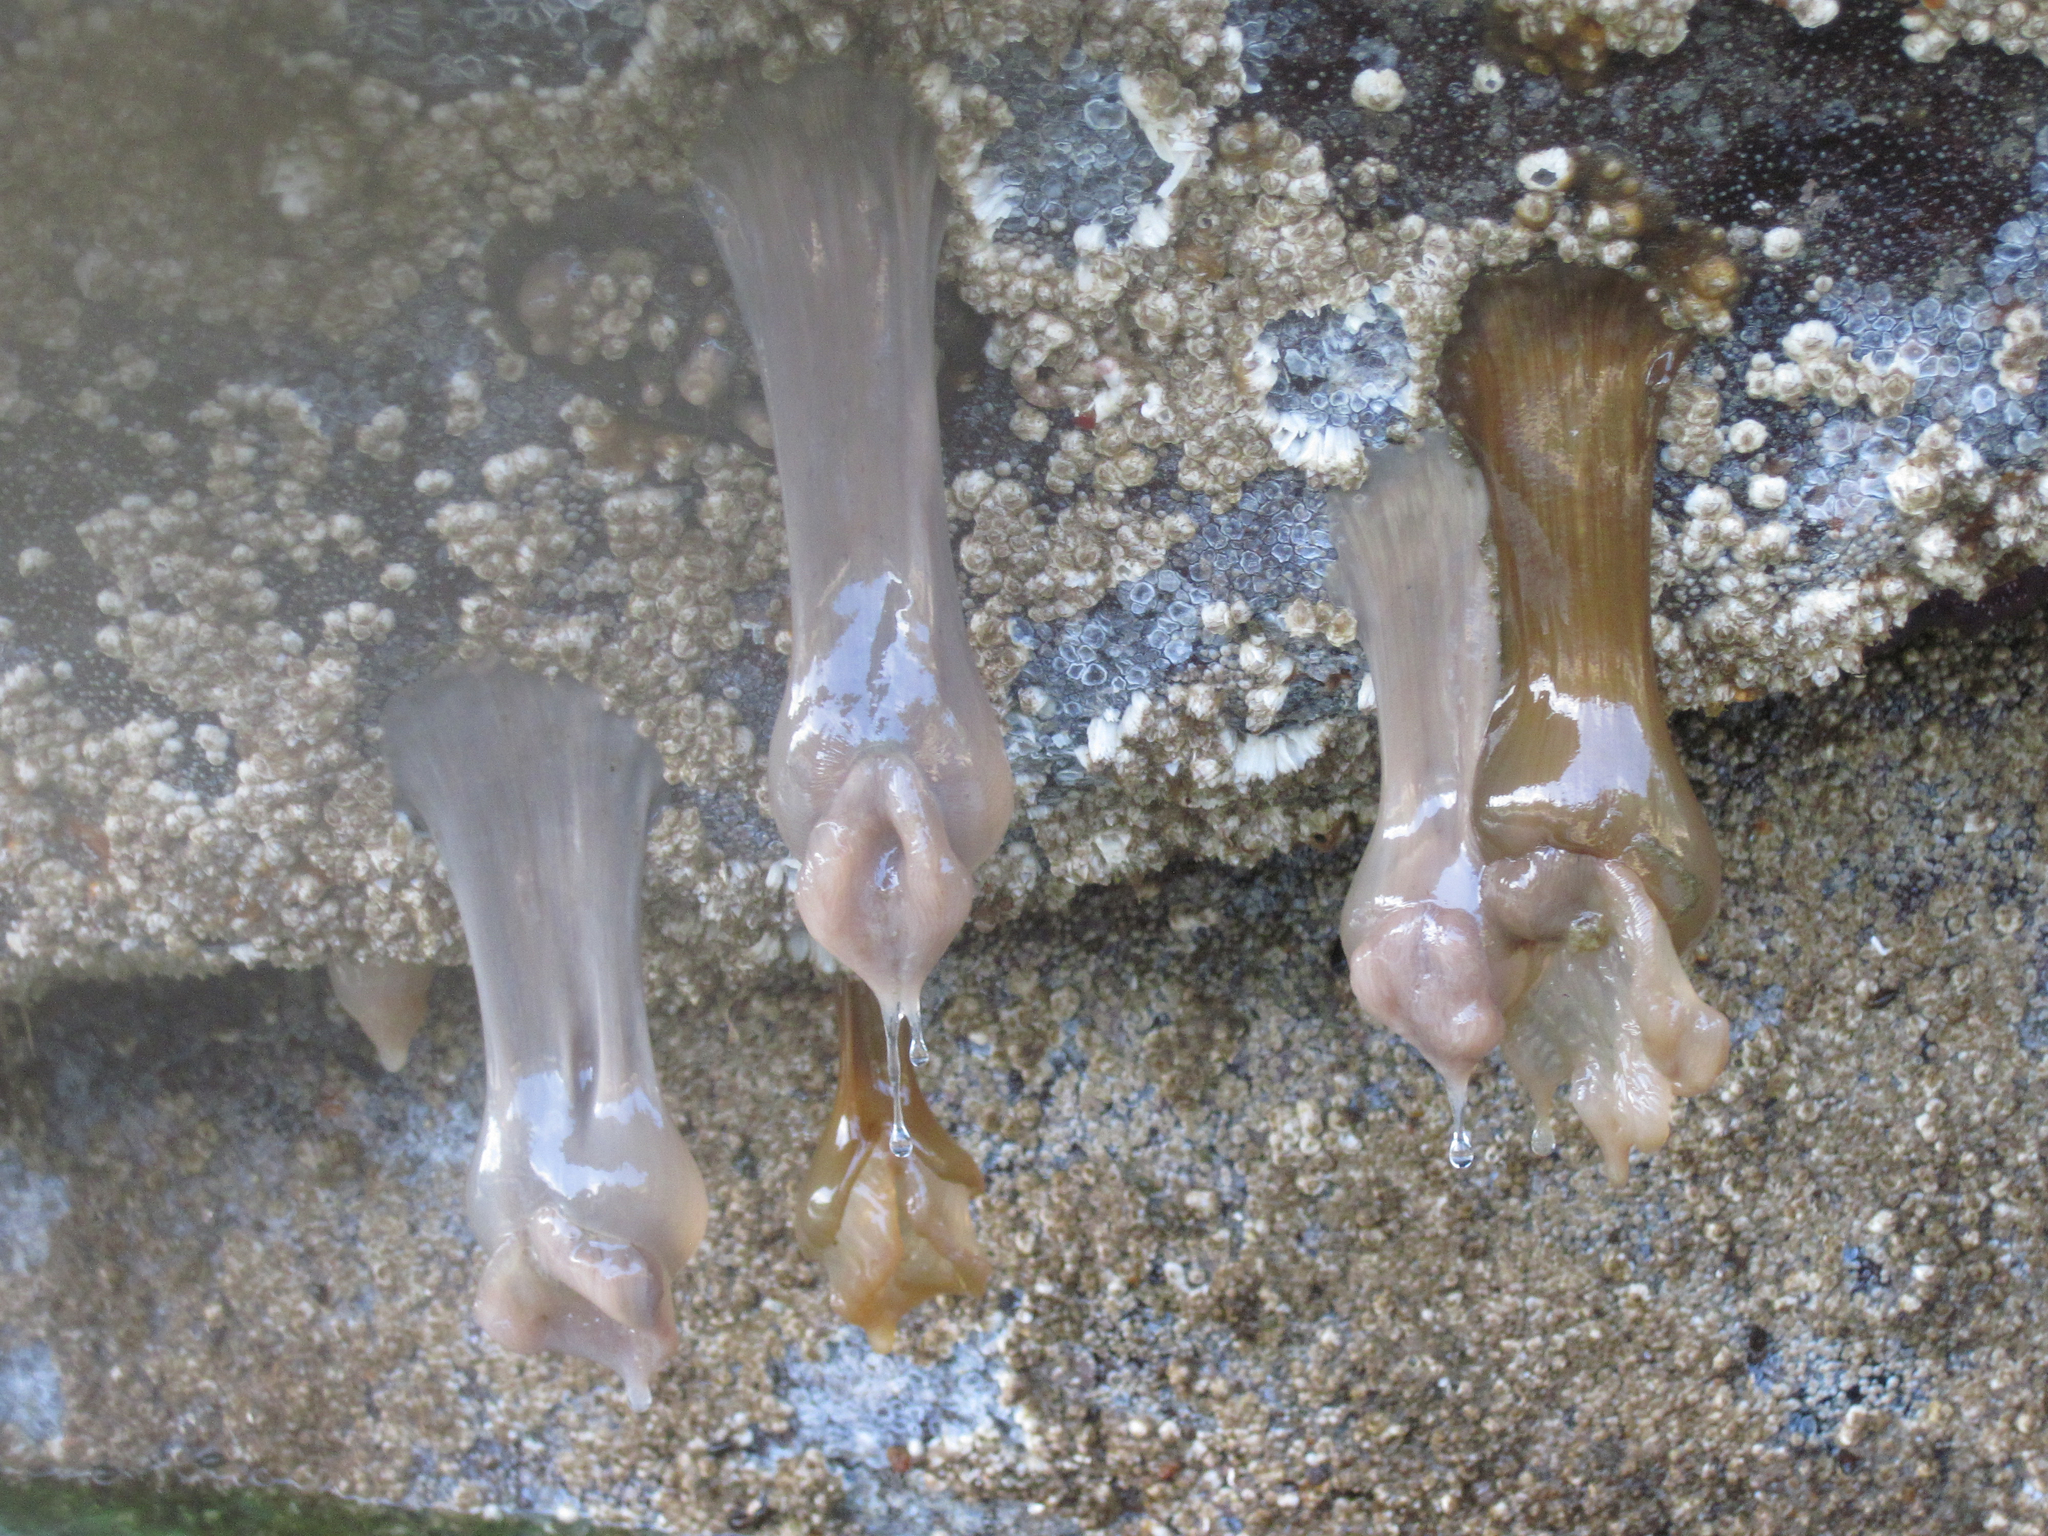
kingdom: Animalia
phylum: Cnidaria
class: Anthozoa
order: Actiniaria
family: Metridiidae
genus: Metridium
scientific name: Metridium senile
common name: Clonal plumose anemone
